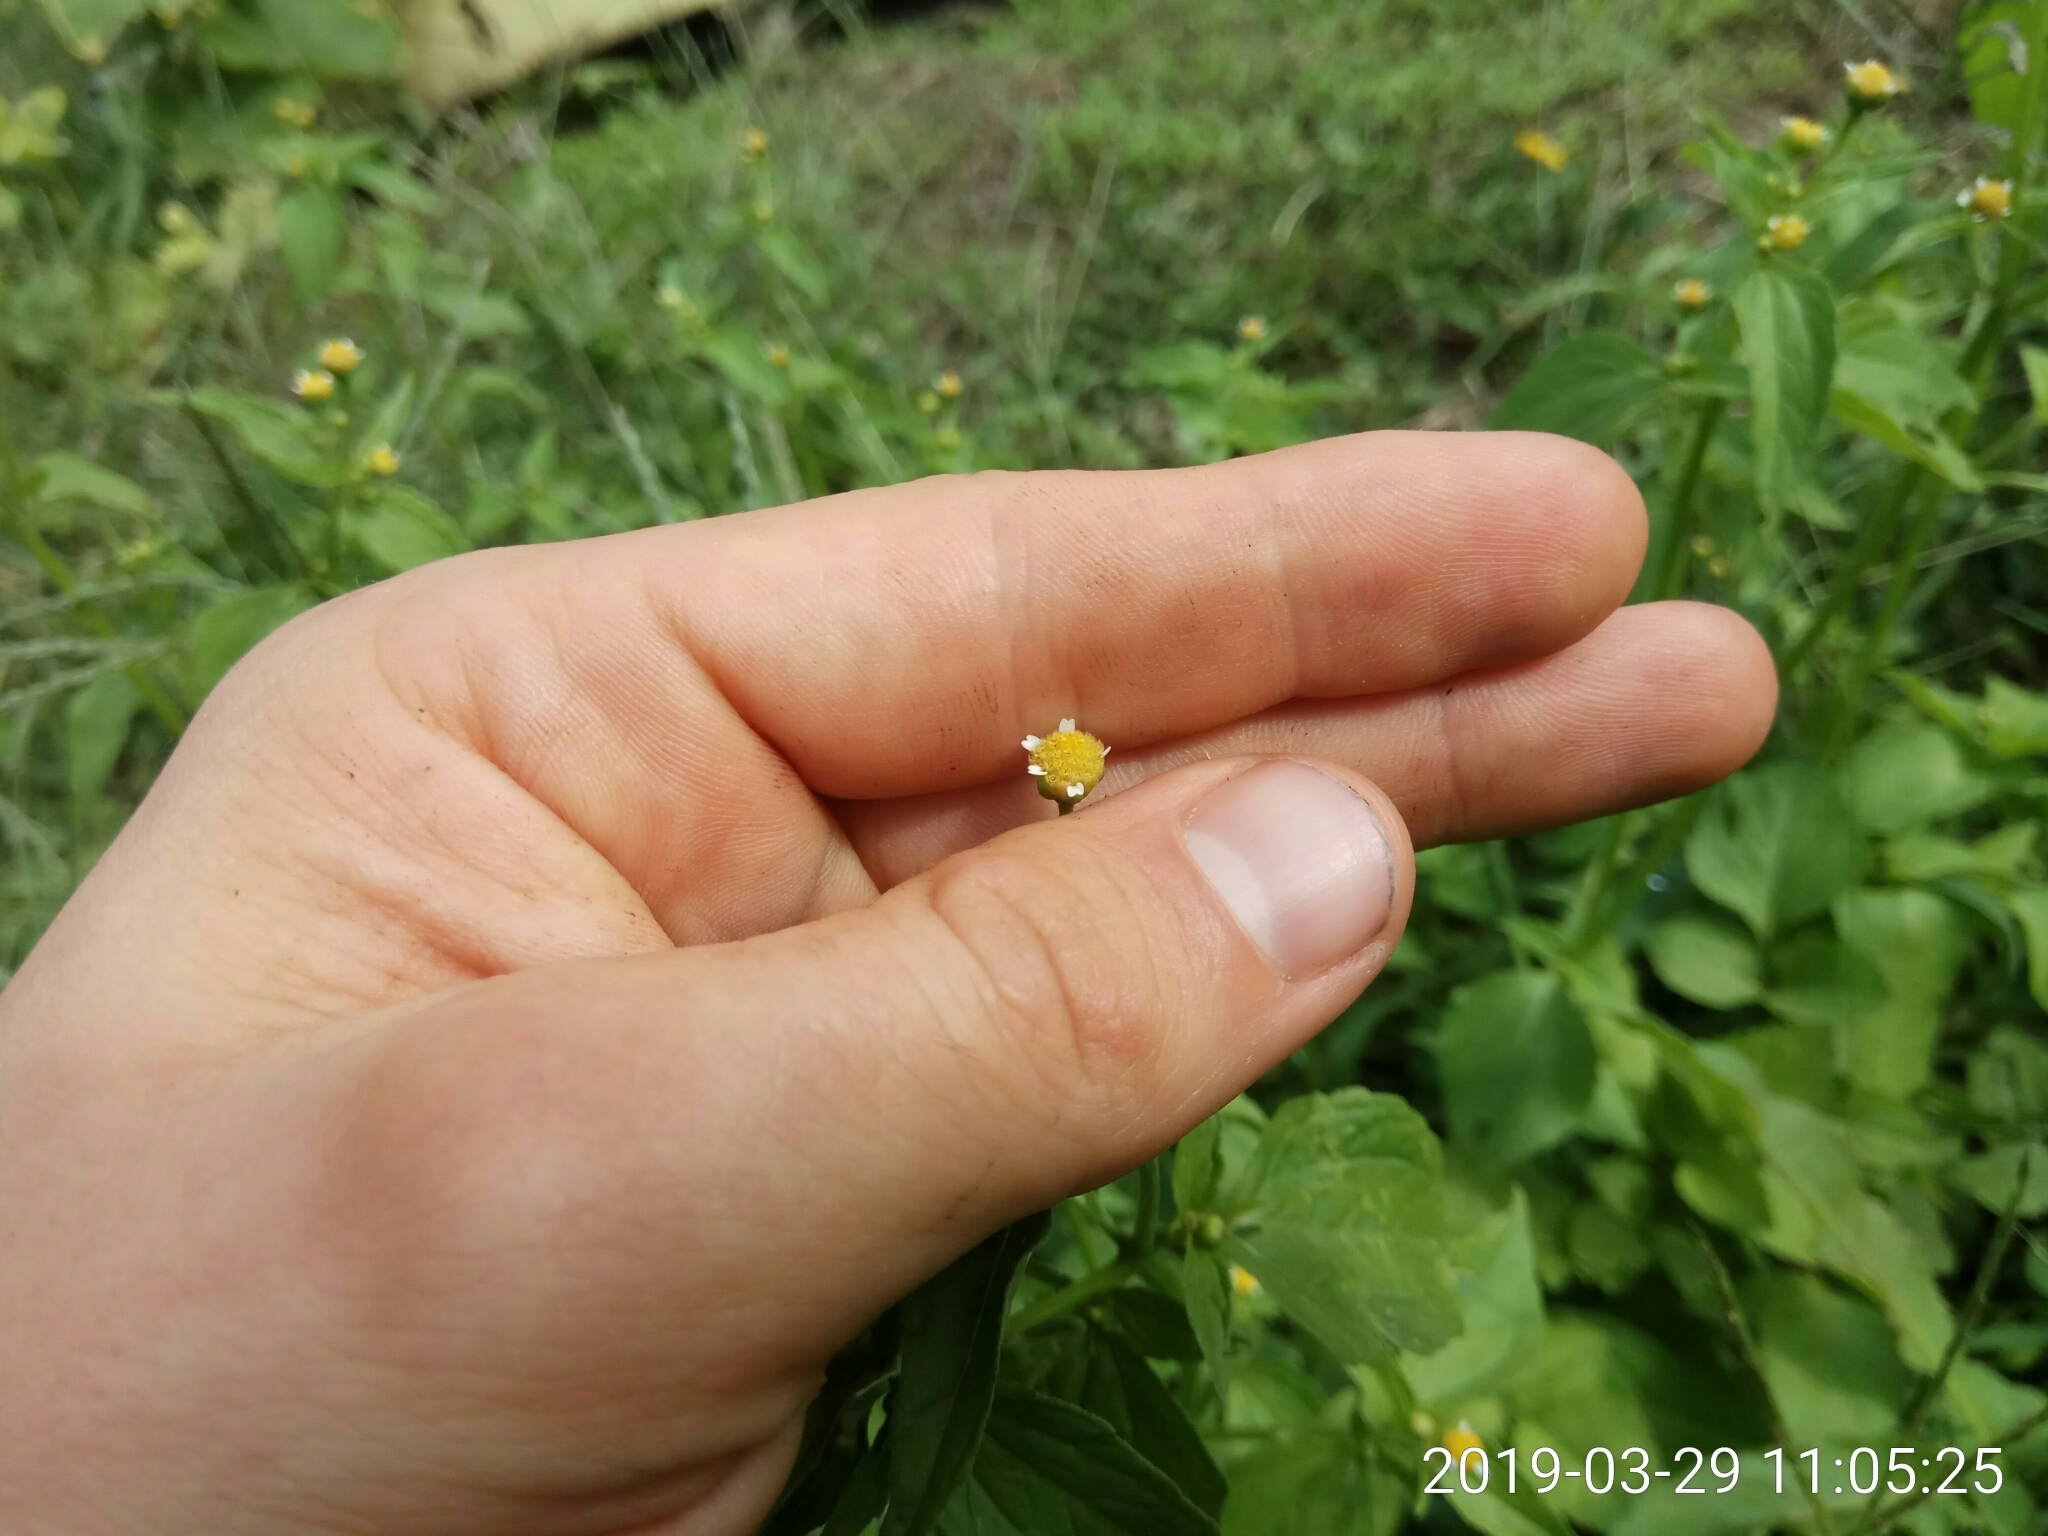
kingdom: Plantae
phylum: Tracheophyta
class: Magnoliopsida
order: Asterales
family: Asteraceae
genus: Galinsoga
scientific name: Galinsoga parviflora
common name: Gallant soldier
